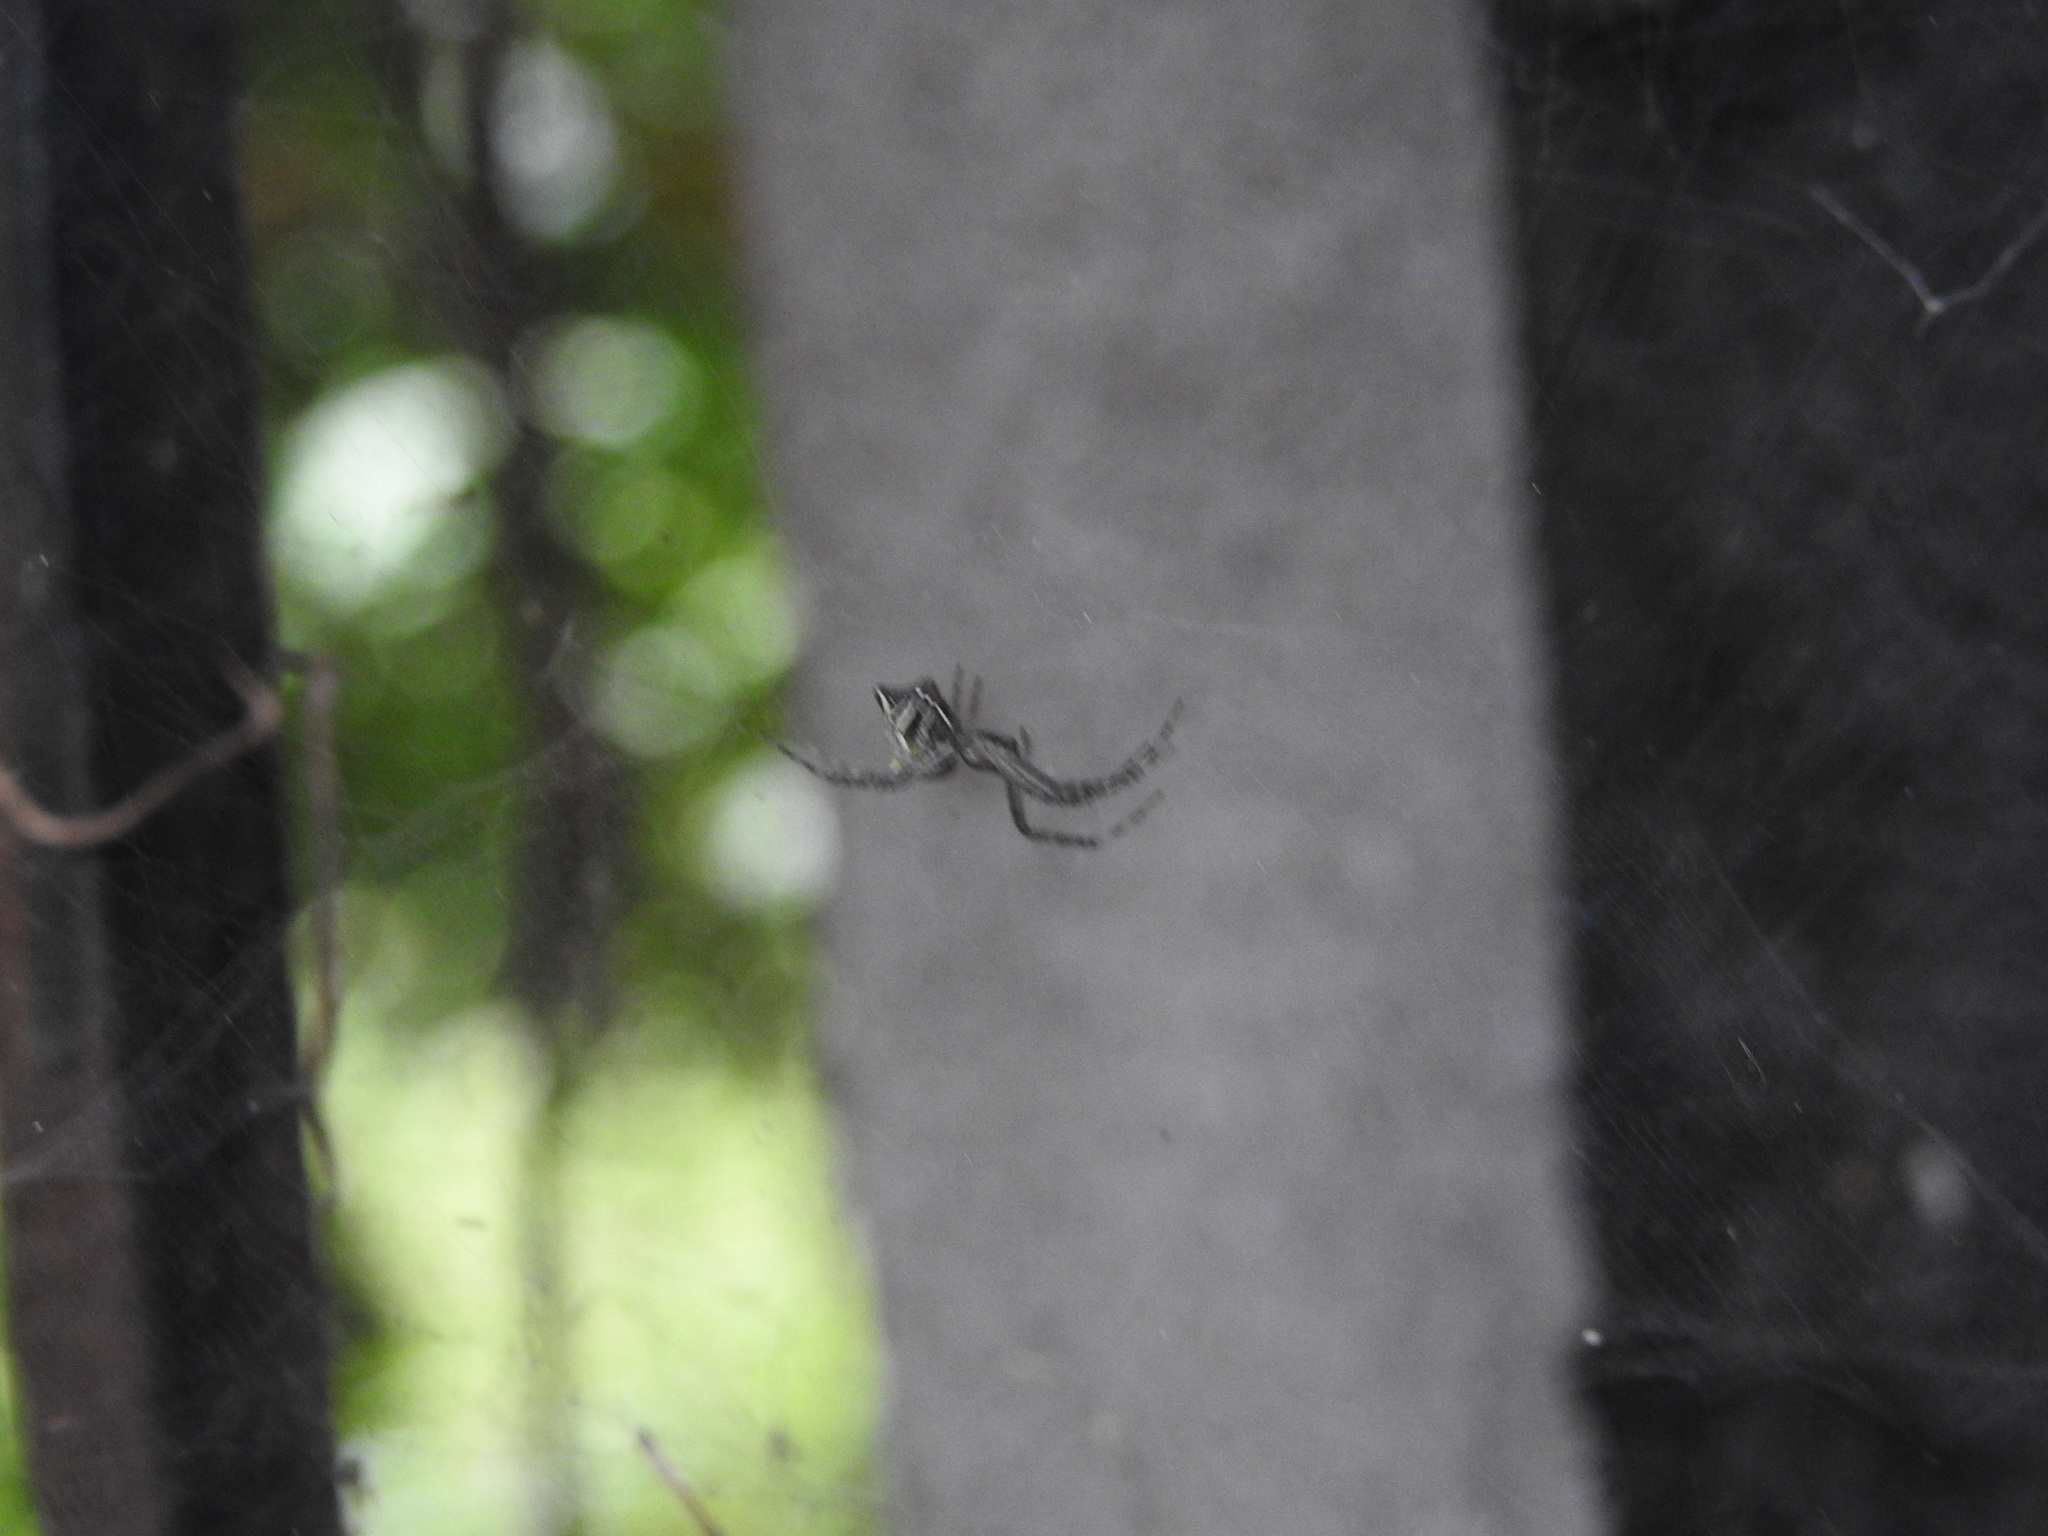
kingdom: Animalia
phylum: Arthropoda
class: Arachnida
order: Araneae
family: Araneidae
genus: Cyrtophora
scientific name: Cyrtophora cicatrosa
